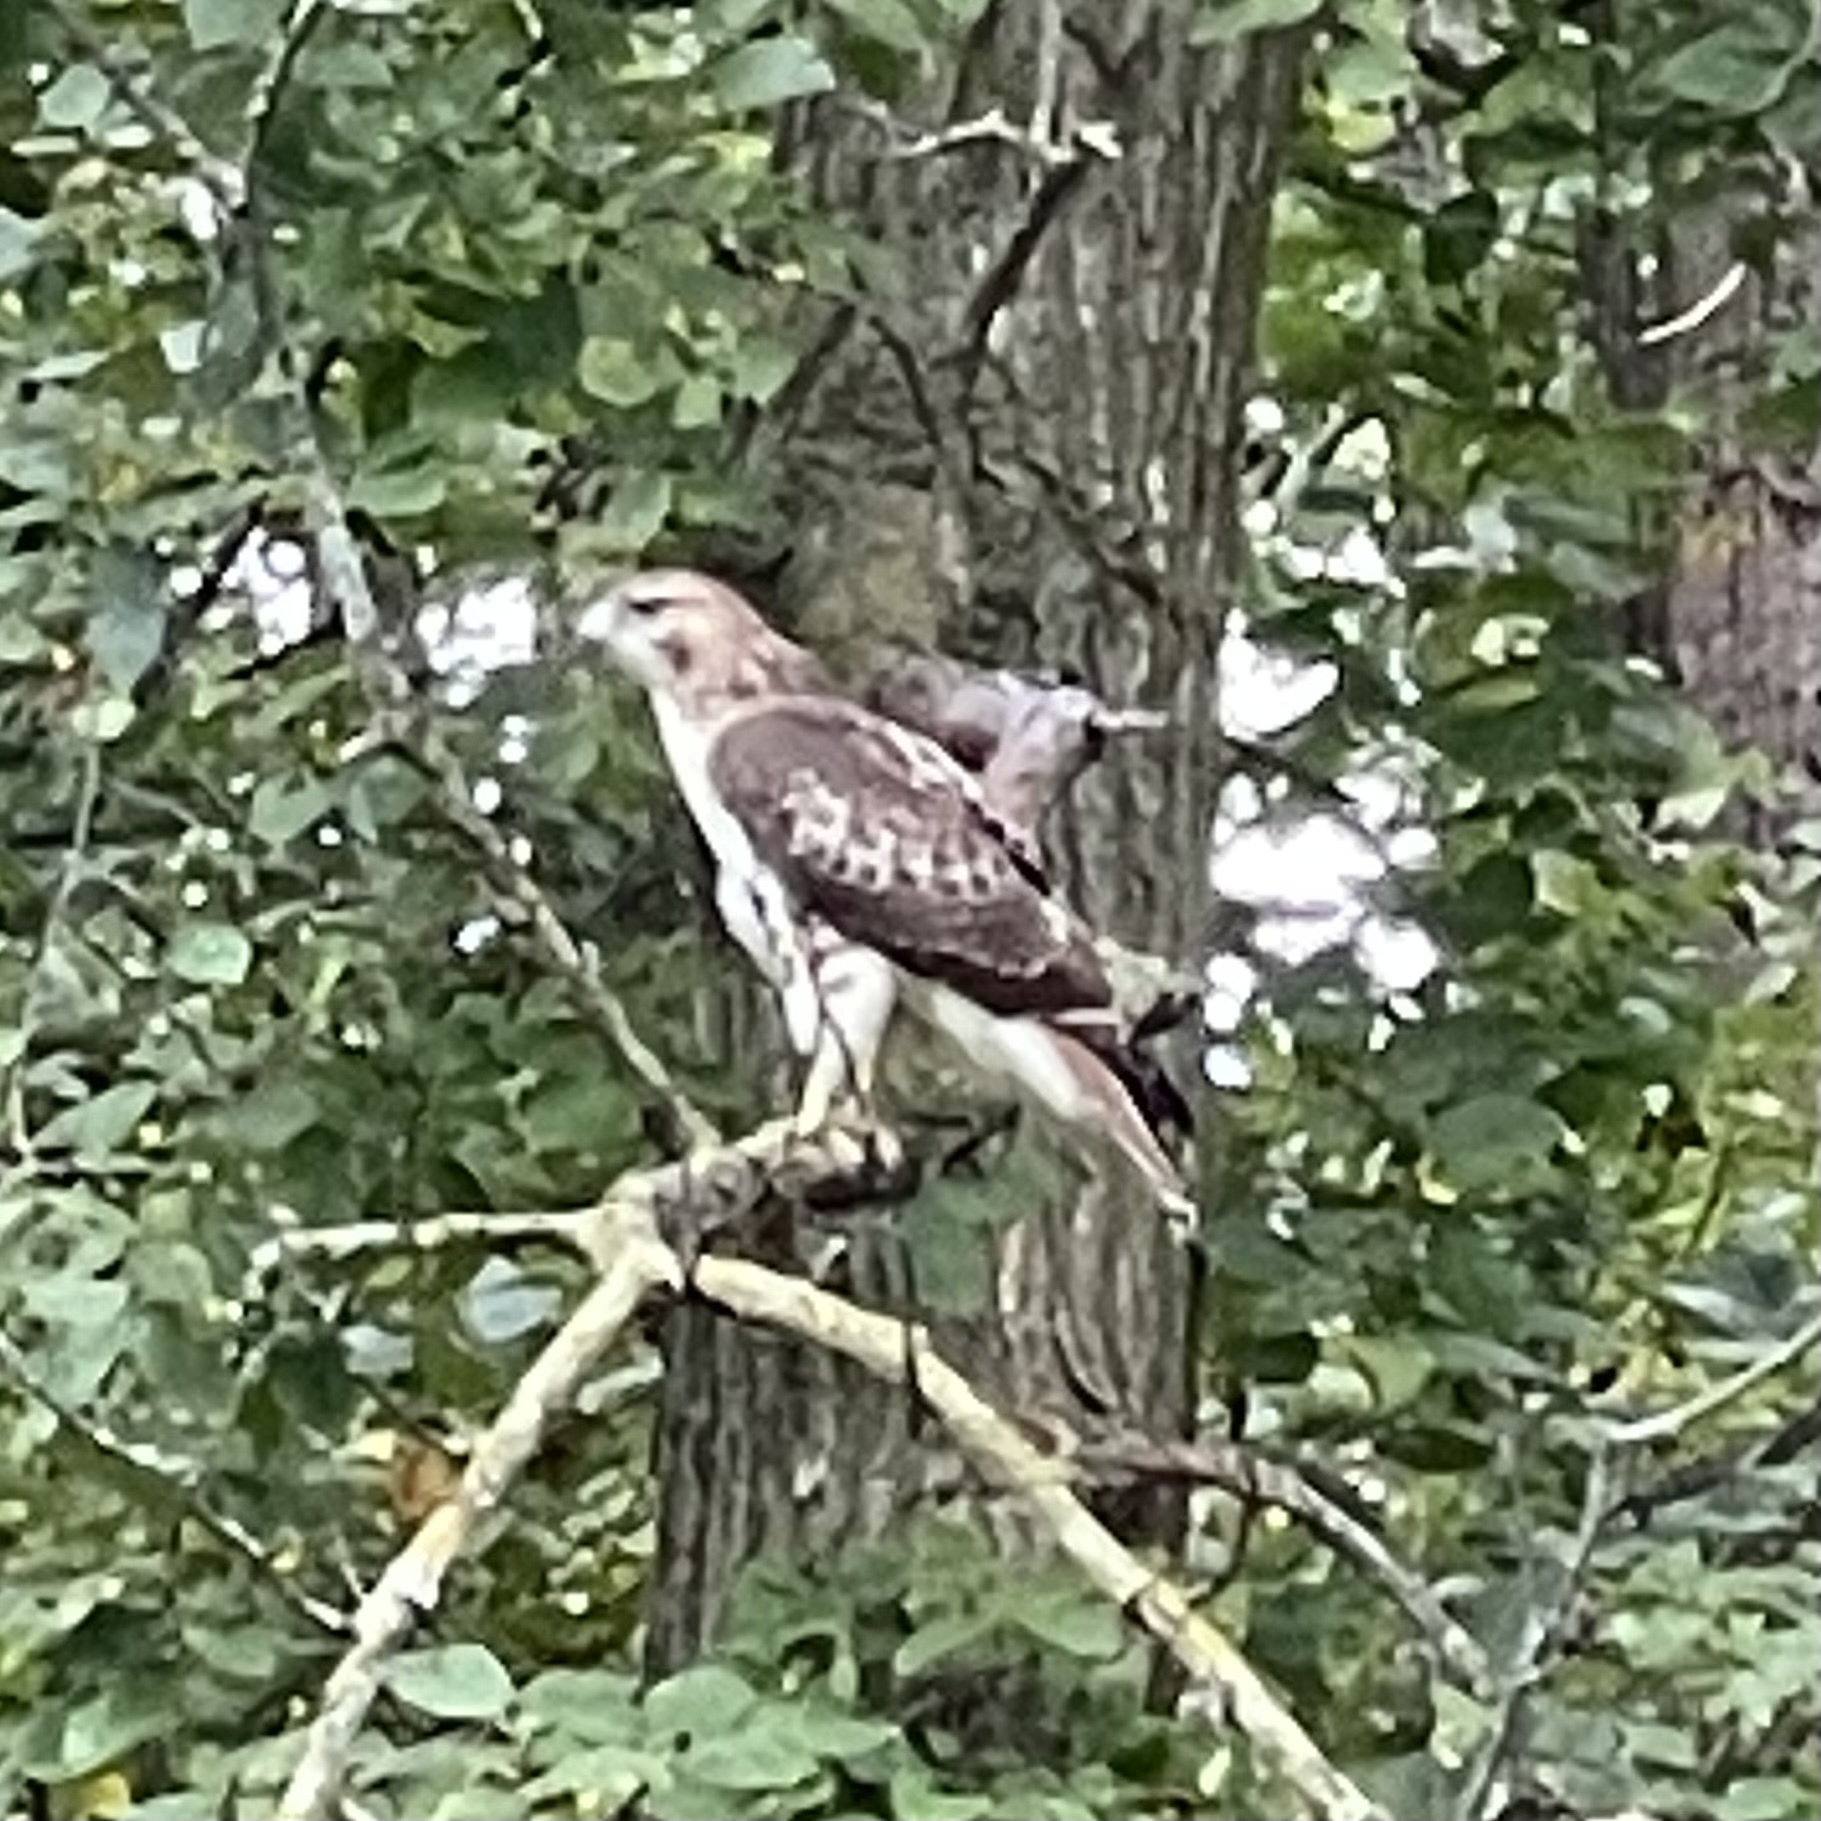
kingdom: Animalia
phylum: Chordata
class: Aves
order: Accipitriformes
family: Accipitridae
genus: Buteo
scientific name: Buteo jamaicensis
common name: Red-tailed hawk
